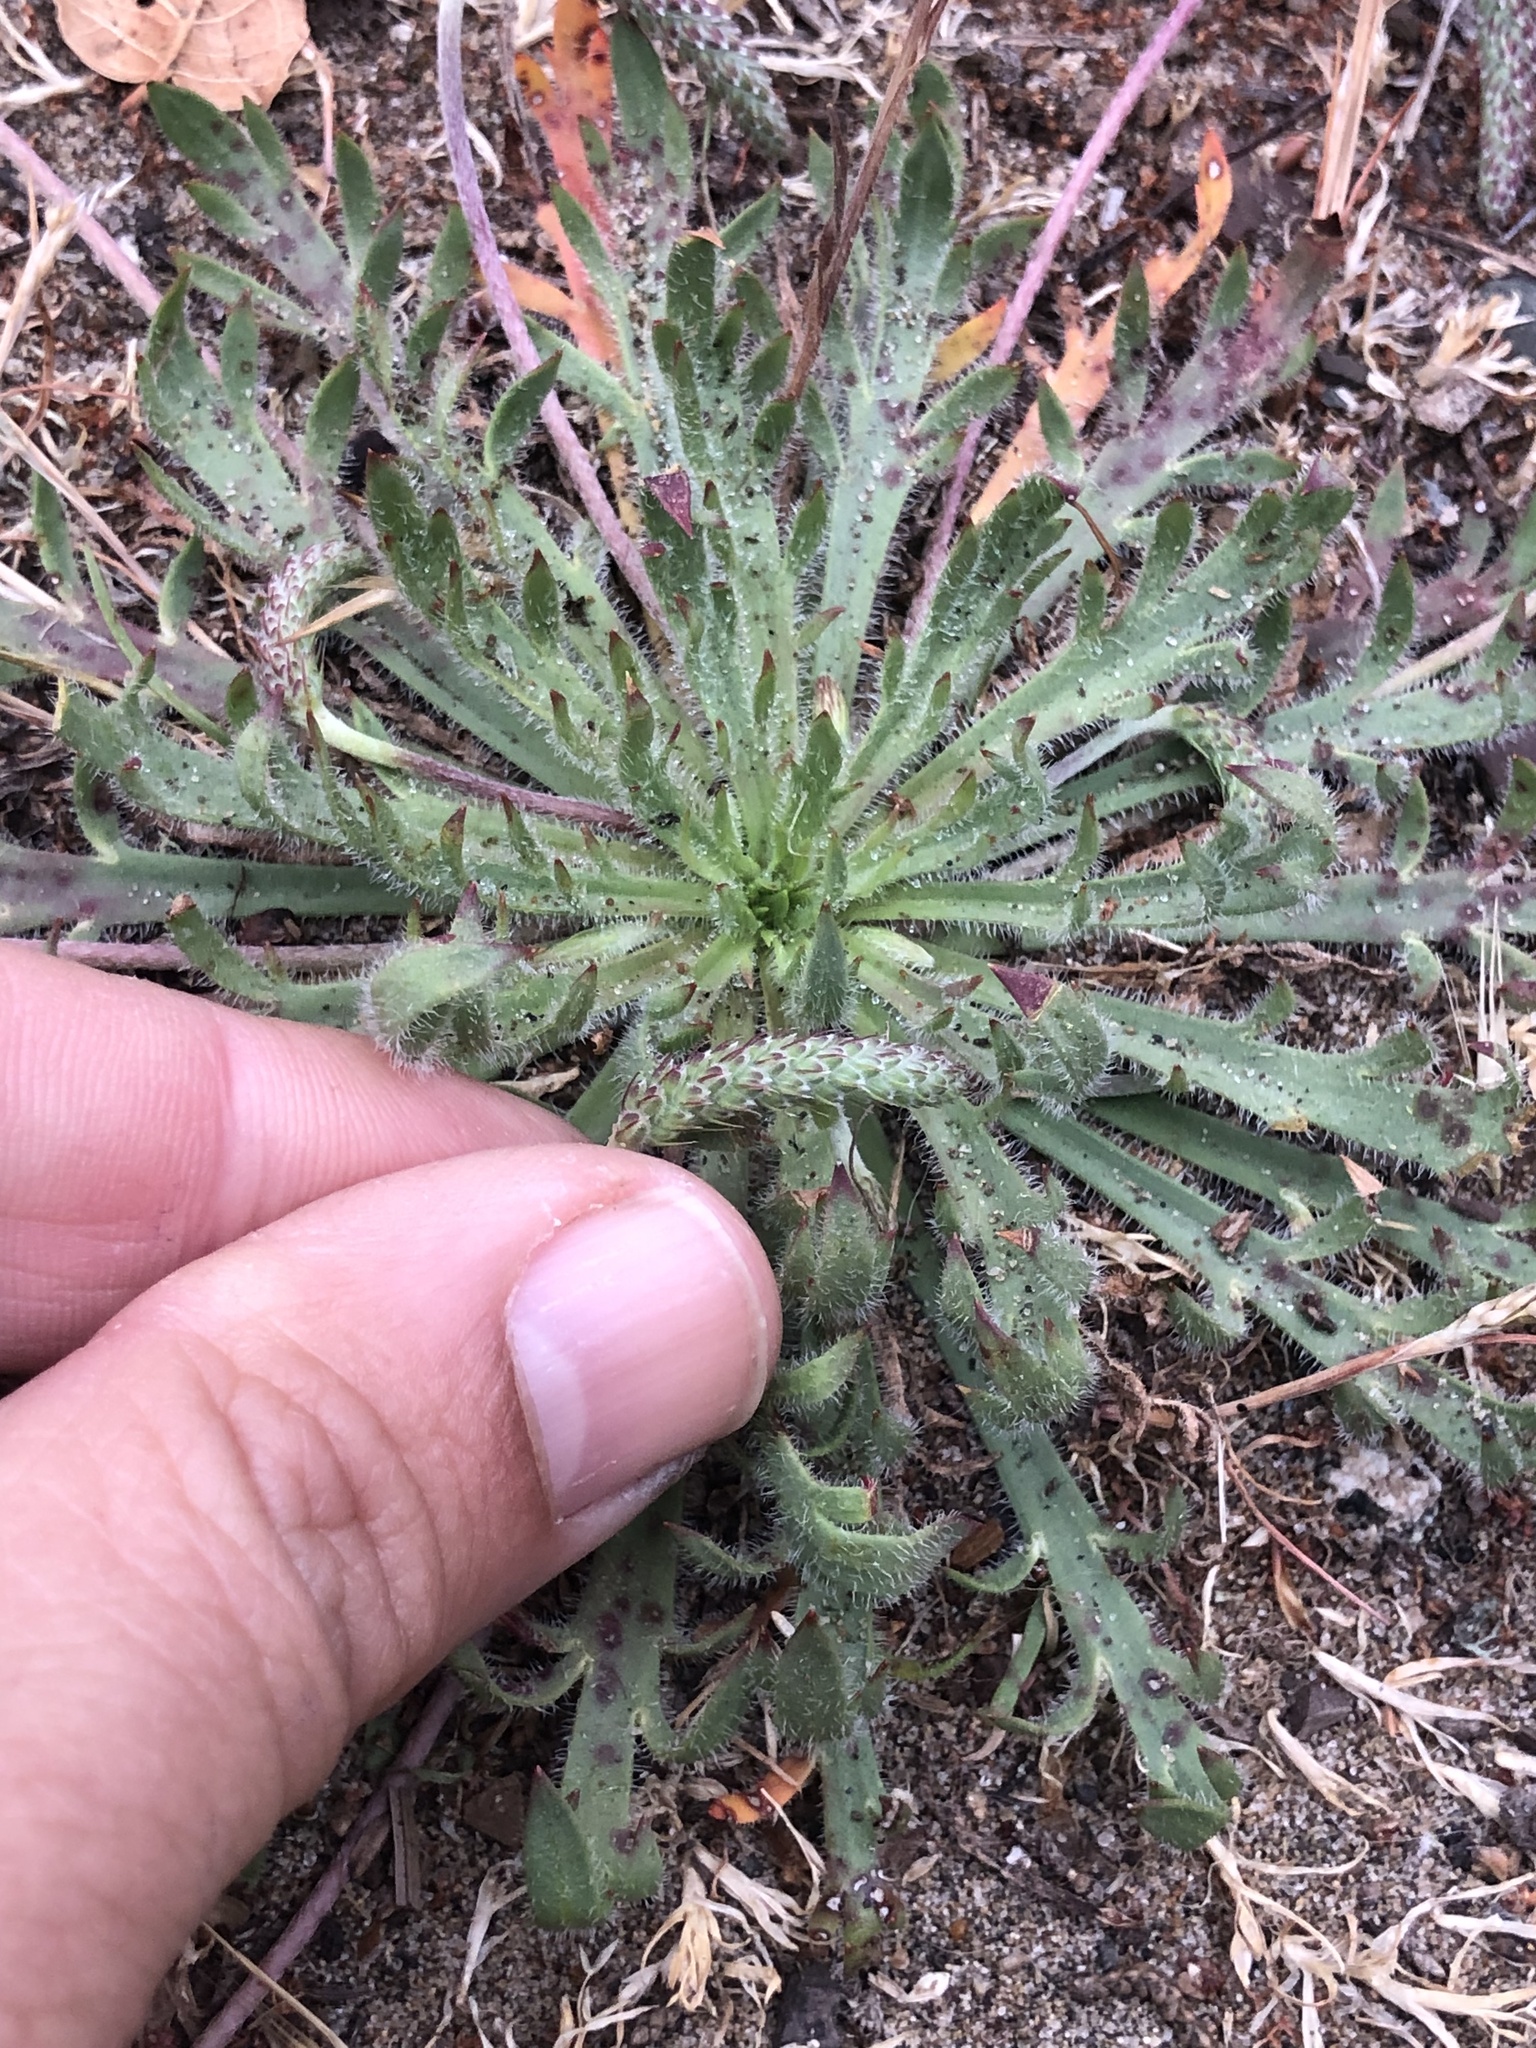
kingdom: Plantae
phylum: Tracheophyta
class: Magnoliopsida
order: Lamiales
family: Plantaginaceae
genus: Plantago
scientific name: Plantago coronopus
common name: Buck's-horn plantain
